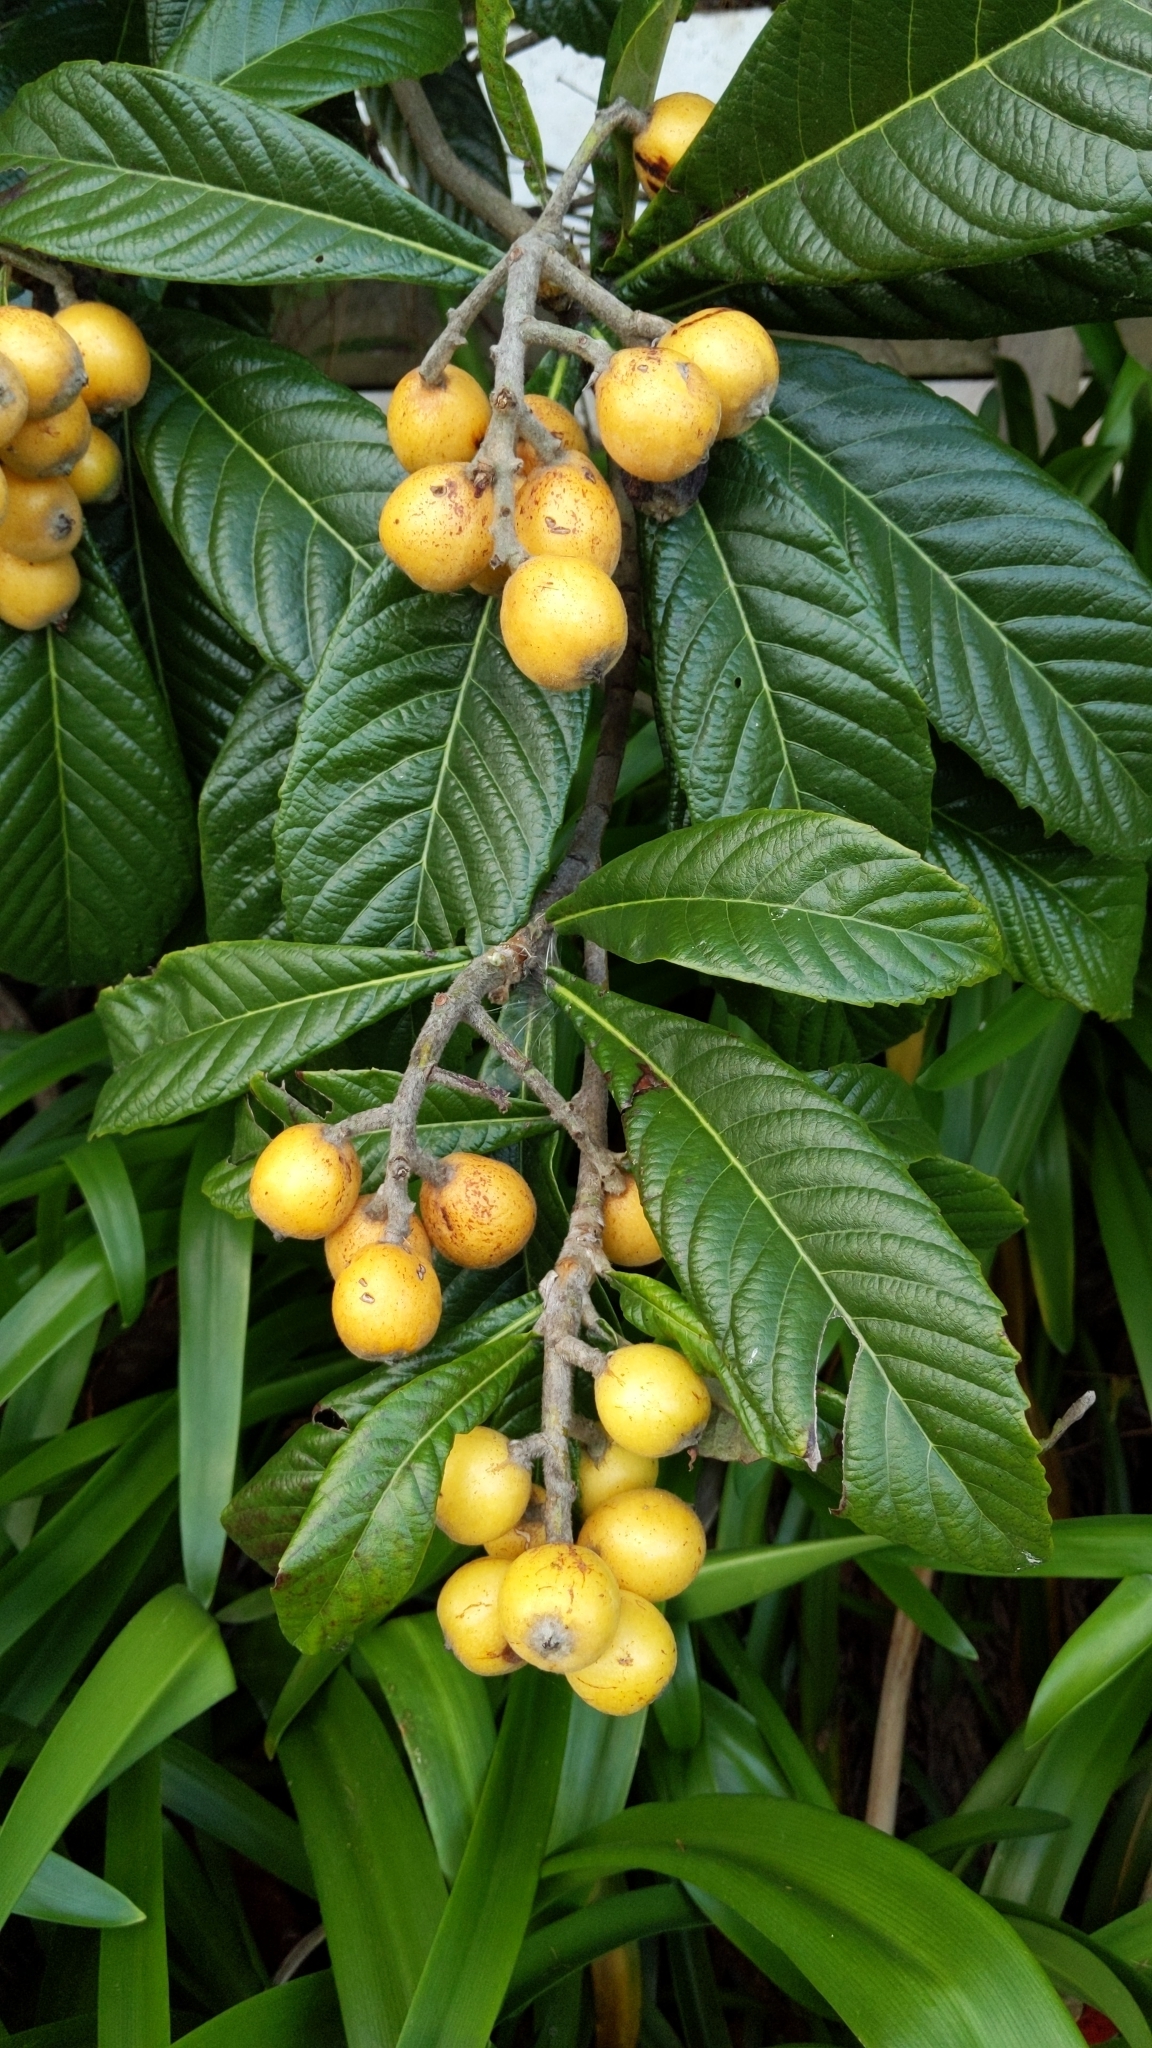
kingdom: Plantae
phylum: Tracheophyta
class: Magnoliopsida
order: Rosales
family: Rosaceae
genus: Rhaphiolepis
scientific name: Rhaphiolepis bibas
